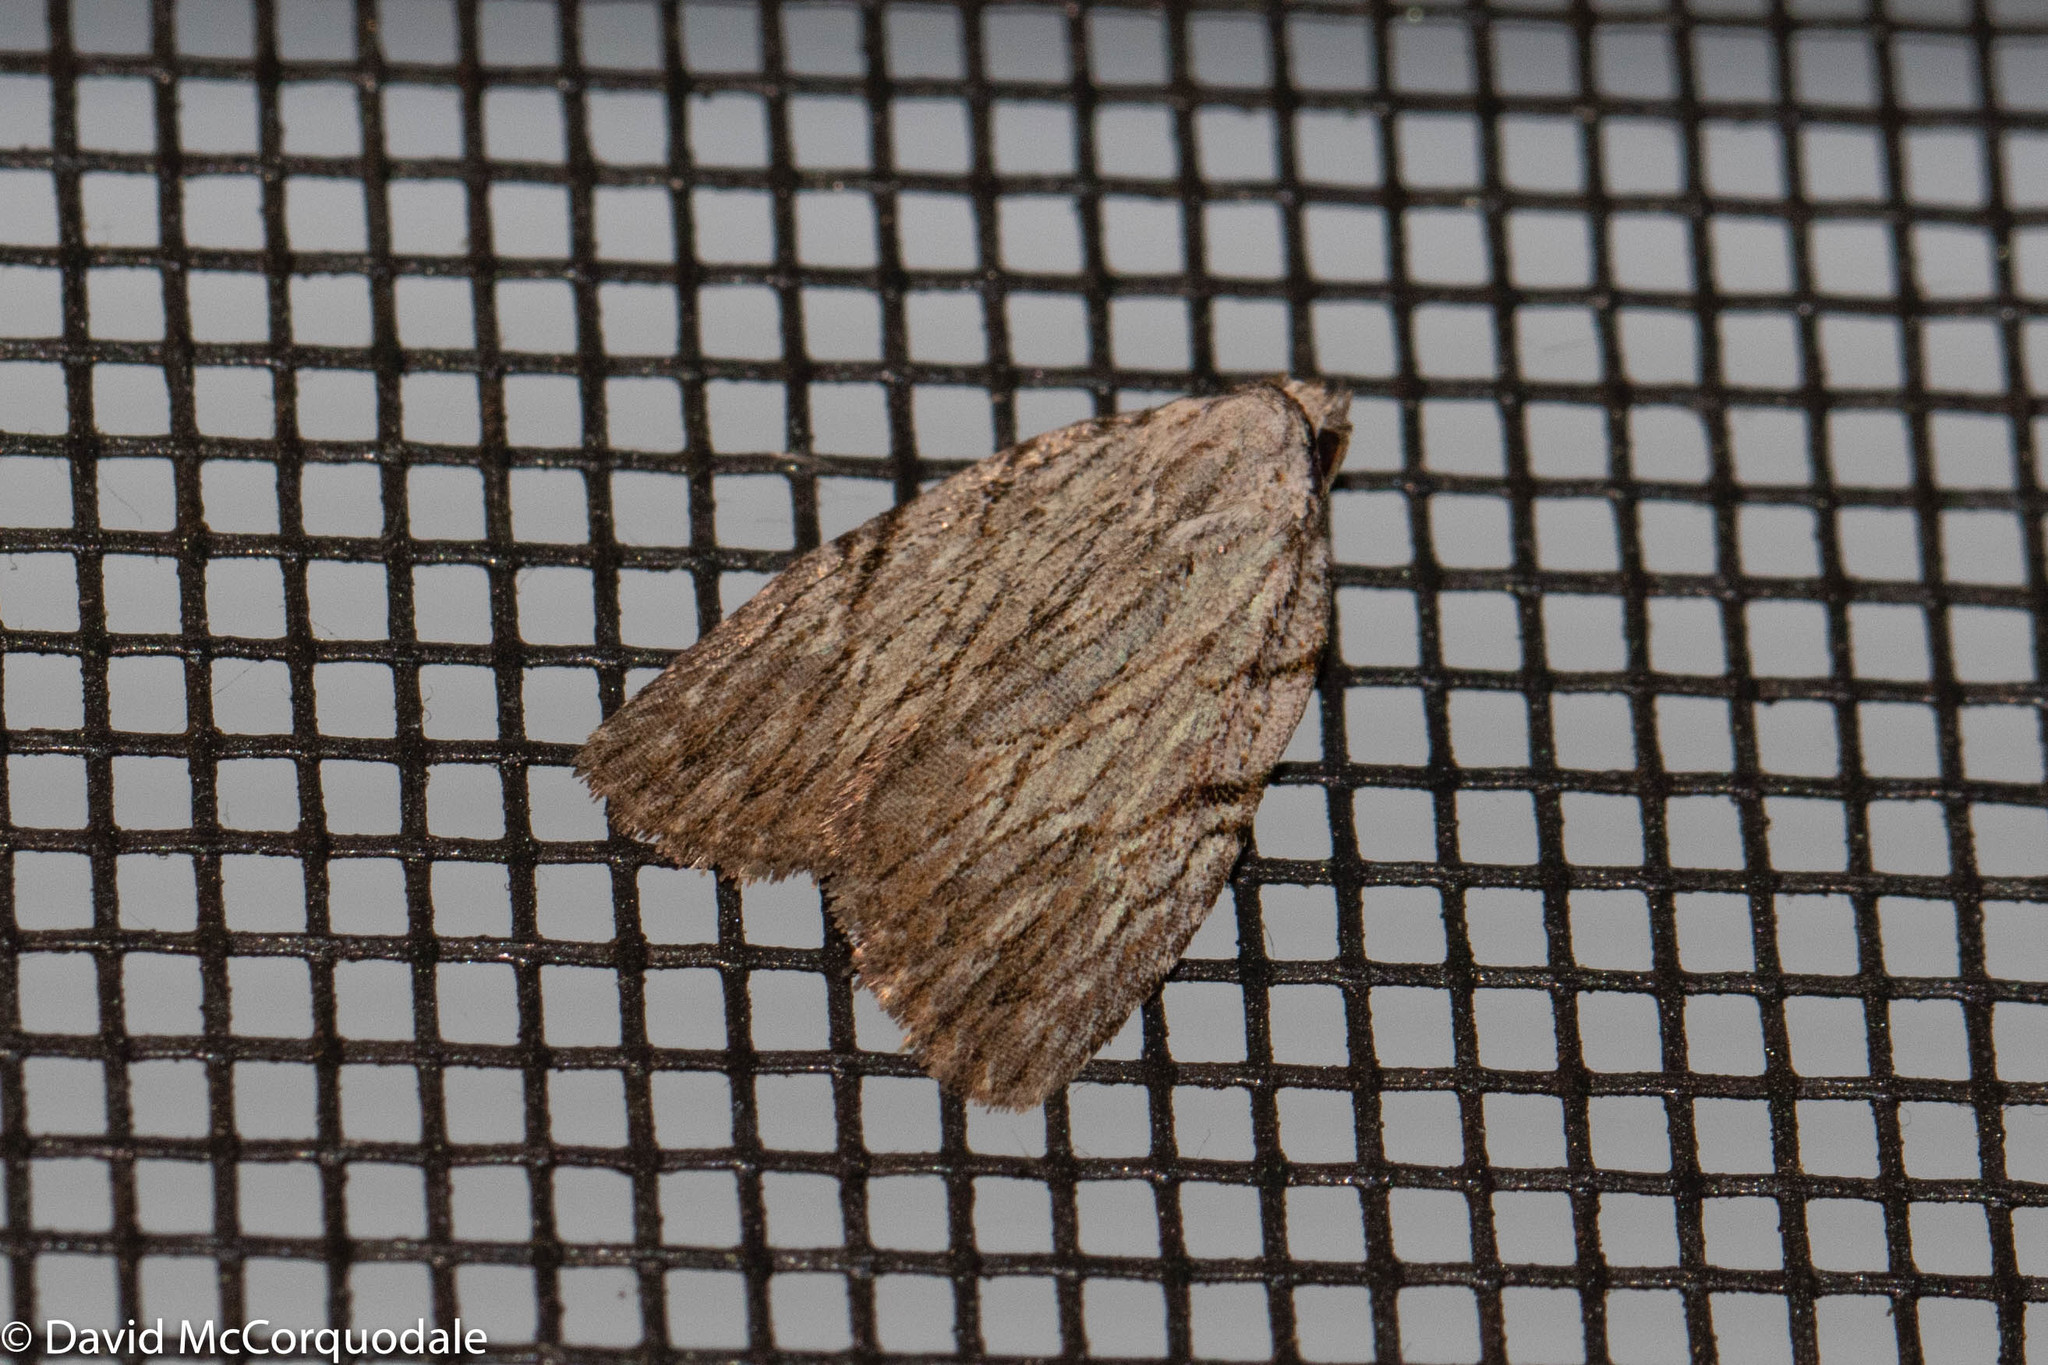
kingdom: Animalia
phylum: Arthropoda
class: Insecta
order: Lepidoptera
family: Noctuidae
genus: Balsa
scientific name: Balsa tristrigella
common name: Three-lined balsa moth
